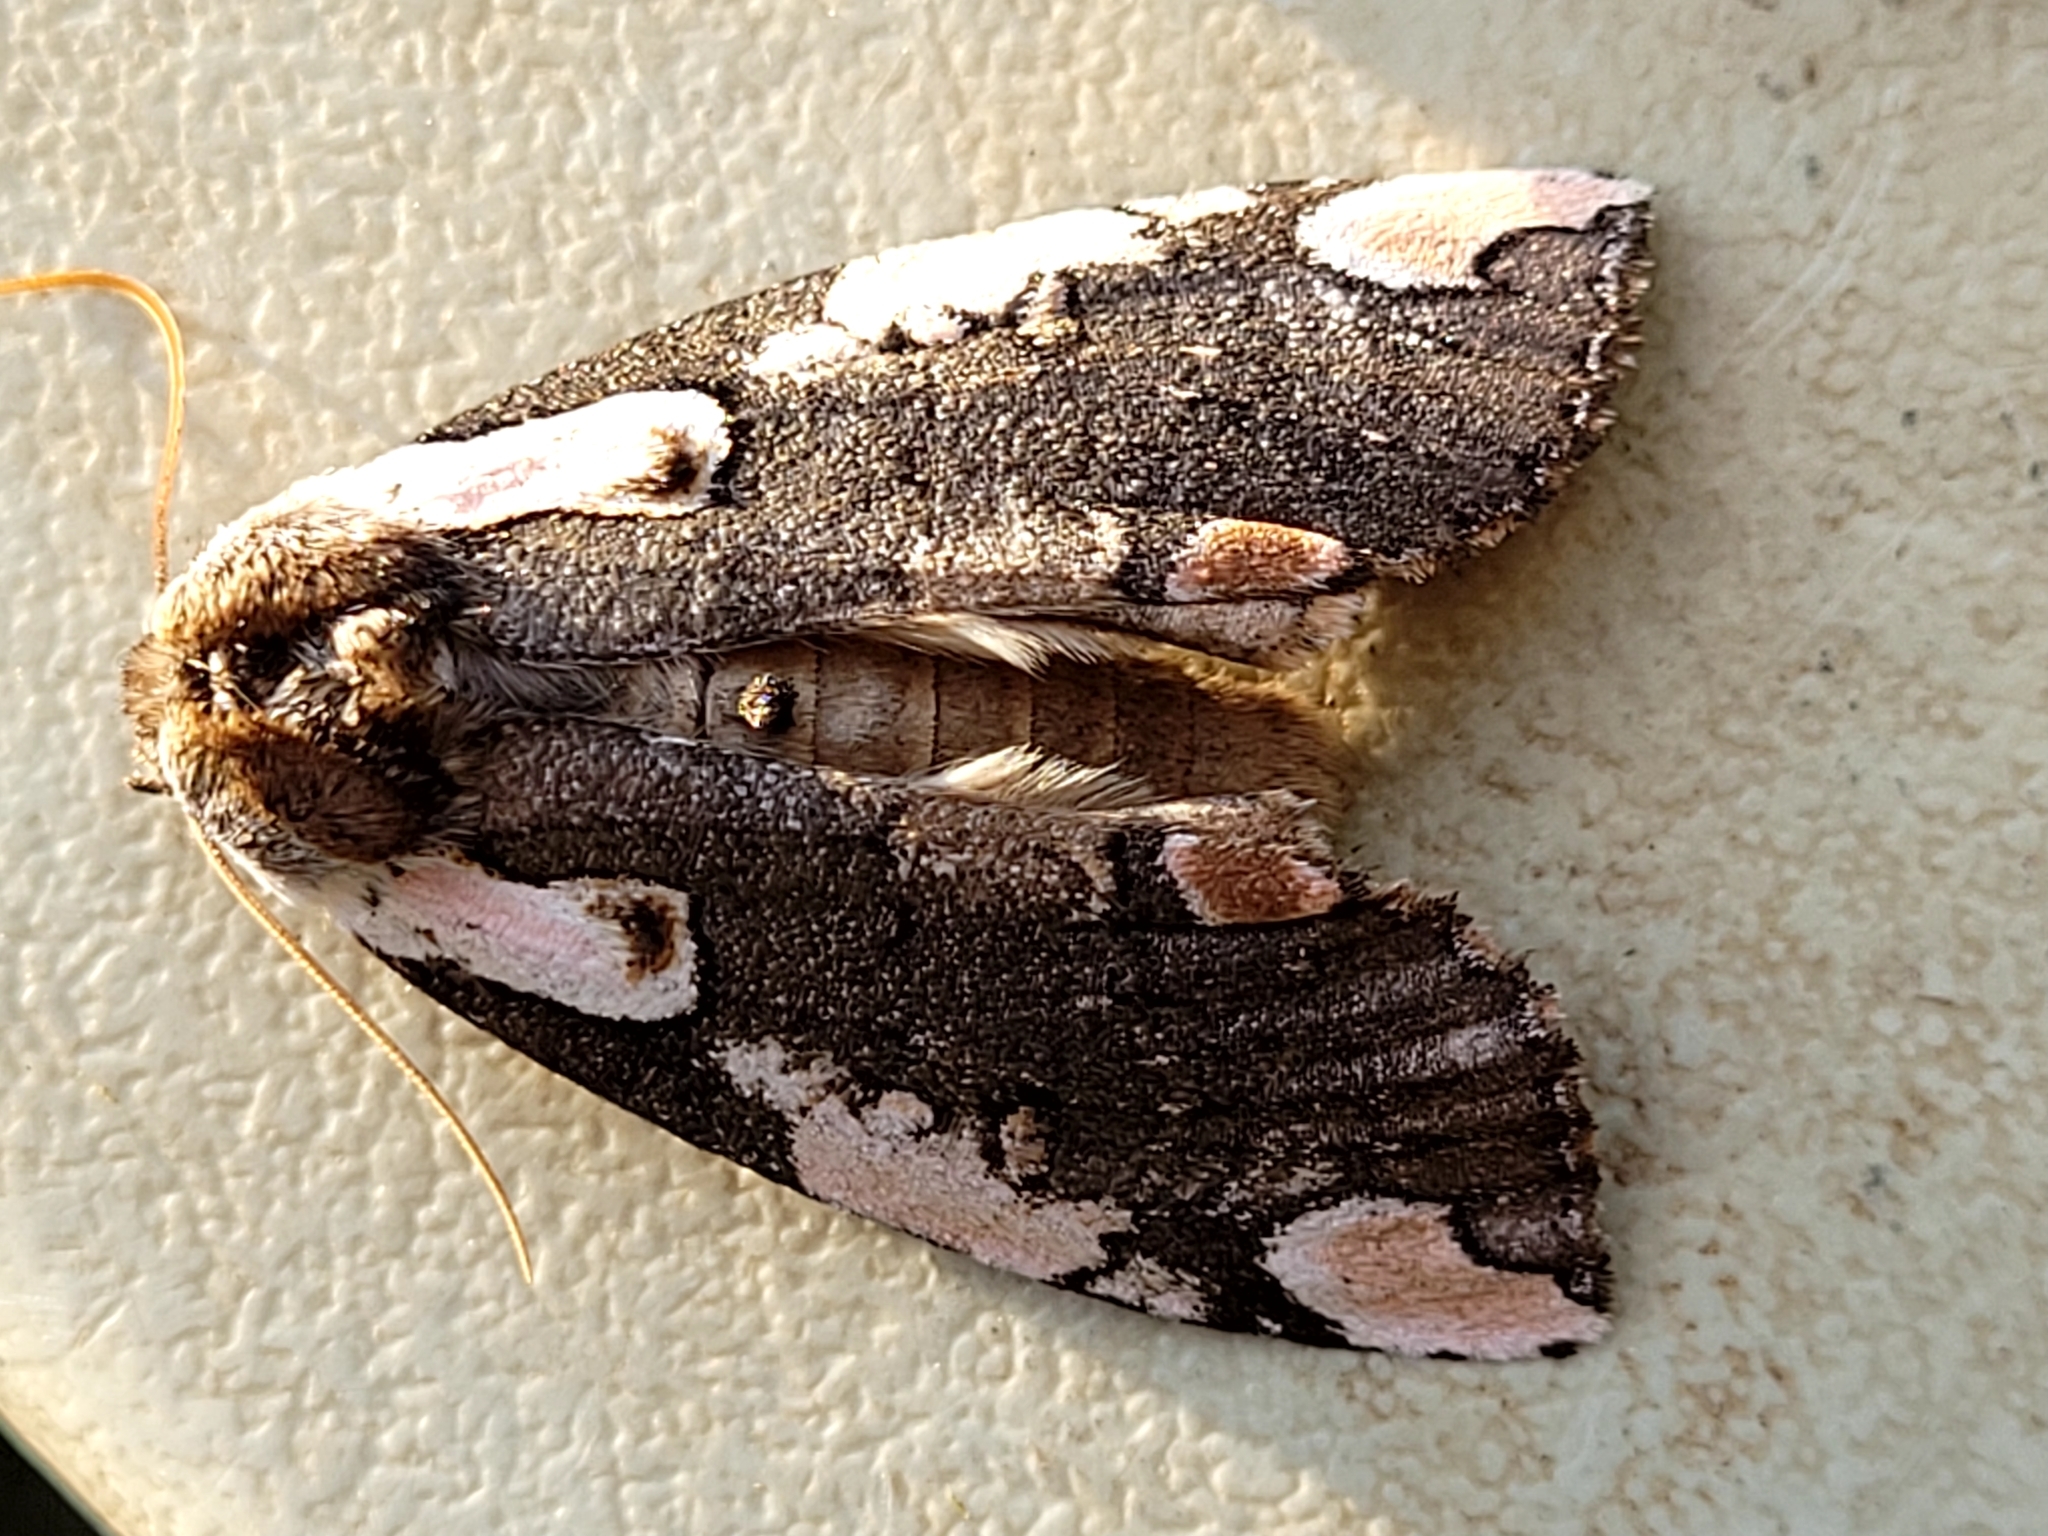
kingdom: Animalia
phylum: Arthropoda
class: Insecta
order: Lepidoptera
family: Drepanidae
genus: Euthyatira
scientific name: Euthyatira pudens
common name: Dogwood thyatirid moth
